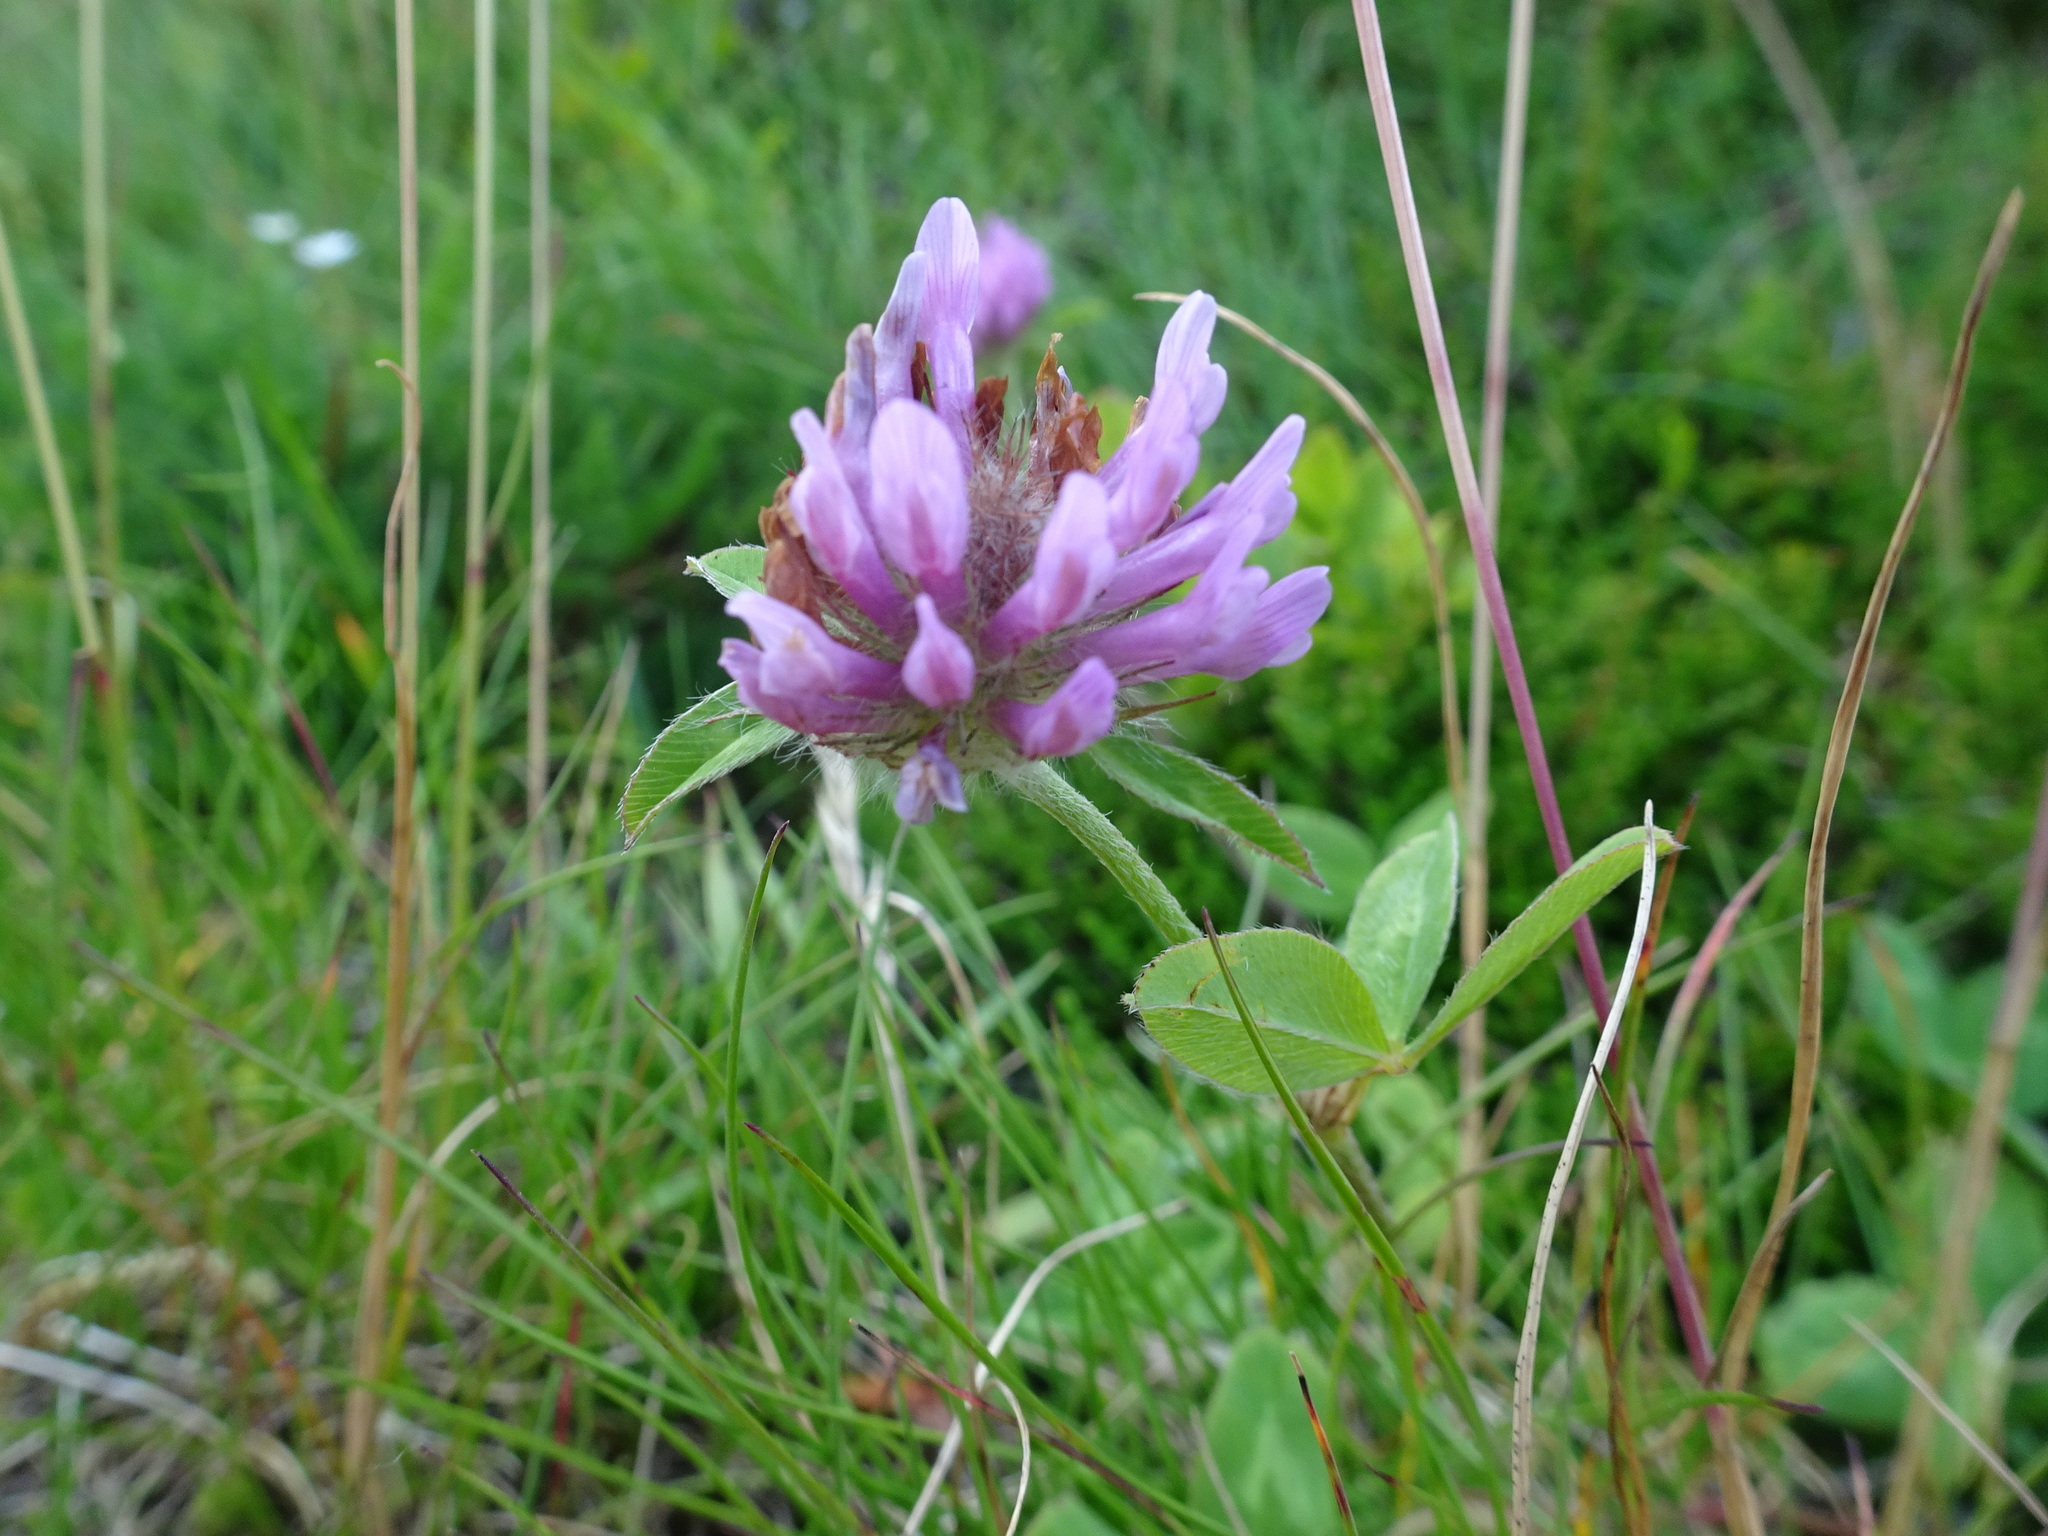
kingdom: Plantae
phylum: Tracheophyta
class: Magnoliopsida
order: Fabales
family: Fabaceae
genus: Trifolium
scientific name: Trifolium pratense
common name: Red clover
